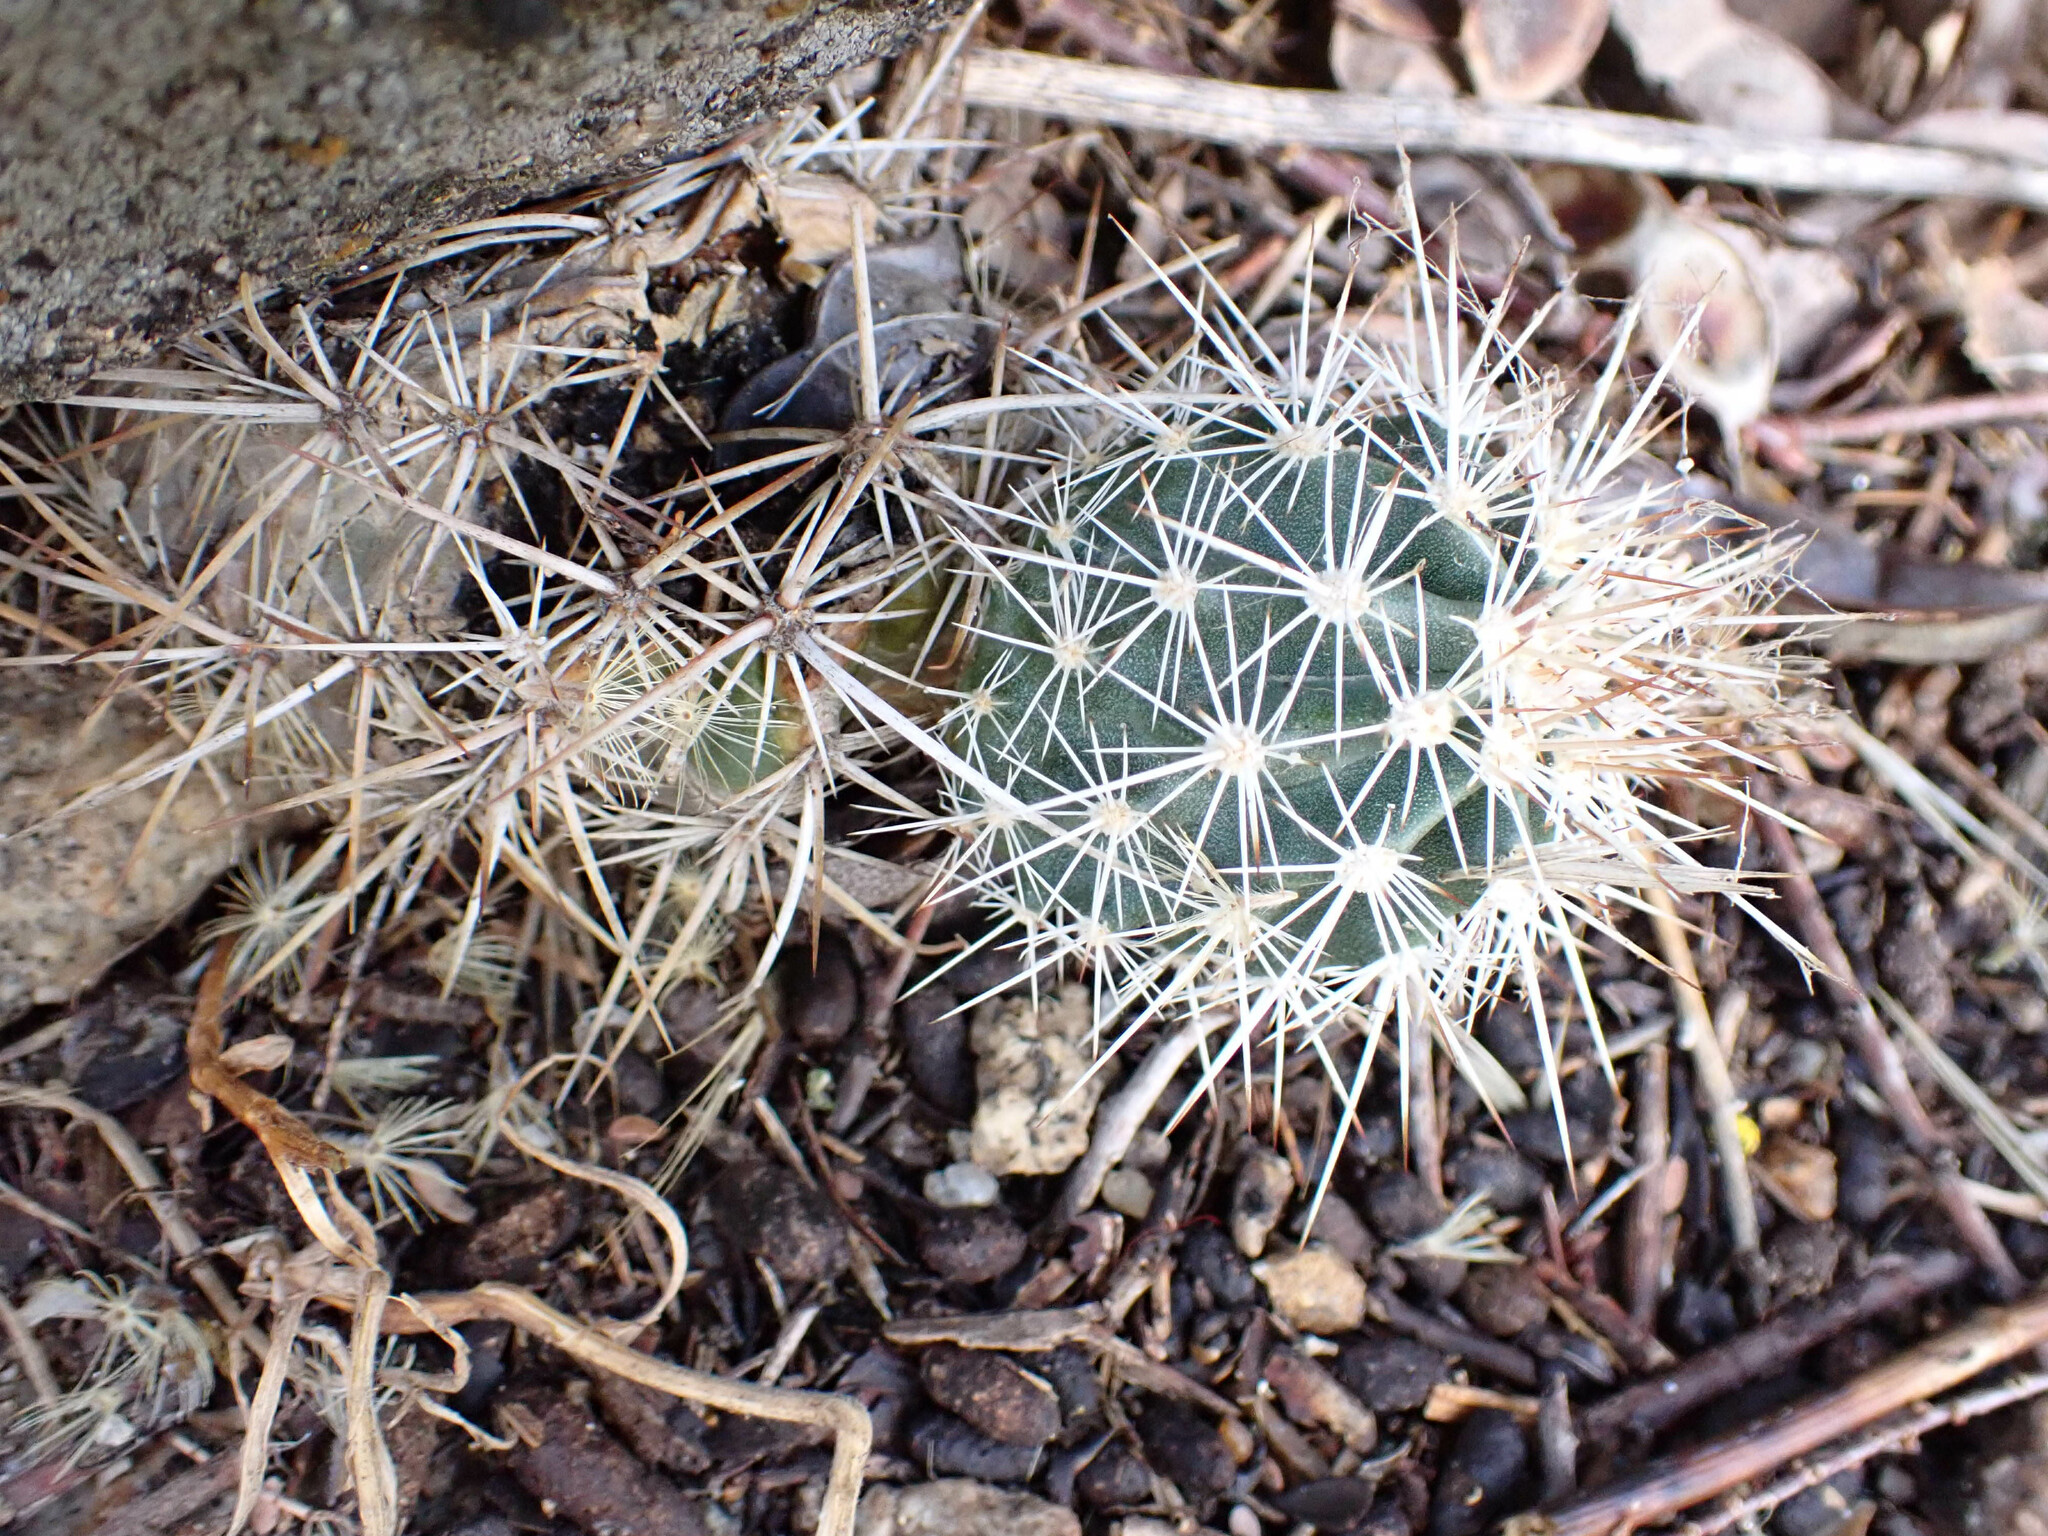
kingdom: Plantae
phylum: Tracheophyta
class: Magnoliopsida
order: Caryophyllales
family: Cactaceae
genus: Echinocereus
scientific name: Echinocereus engelmannii
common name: Engelmann's hedgehog cactus
